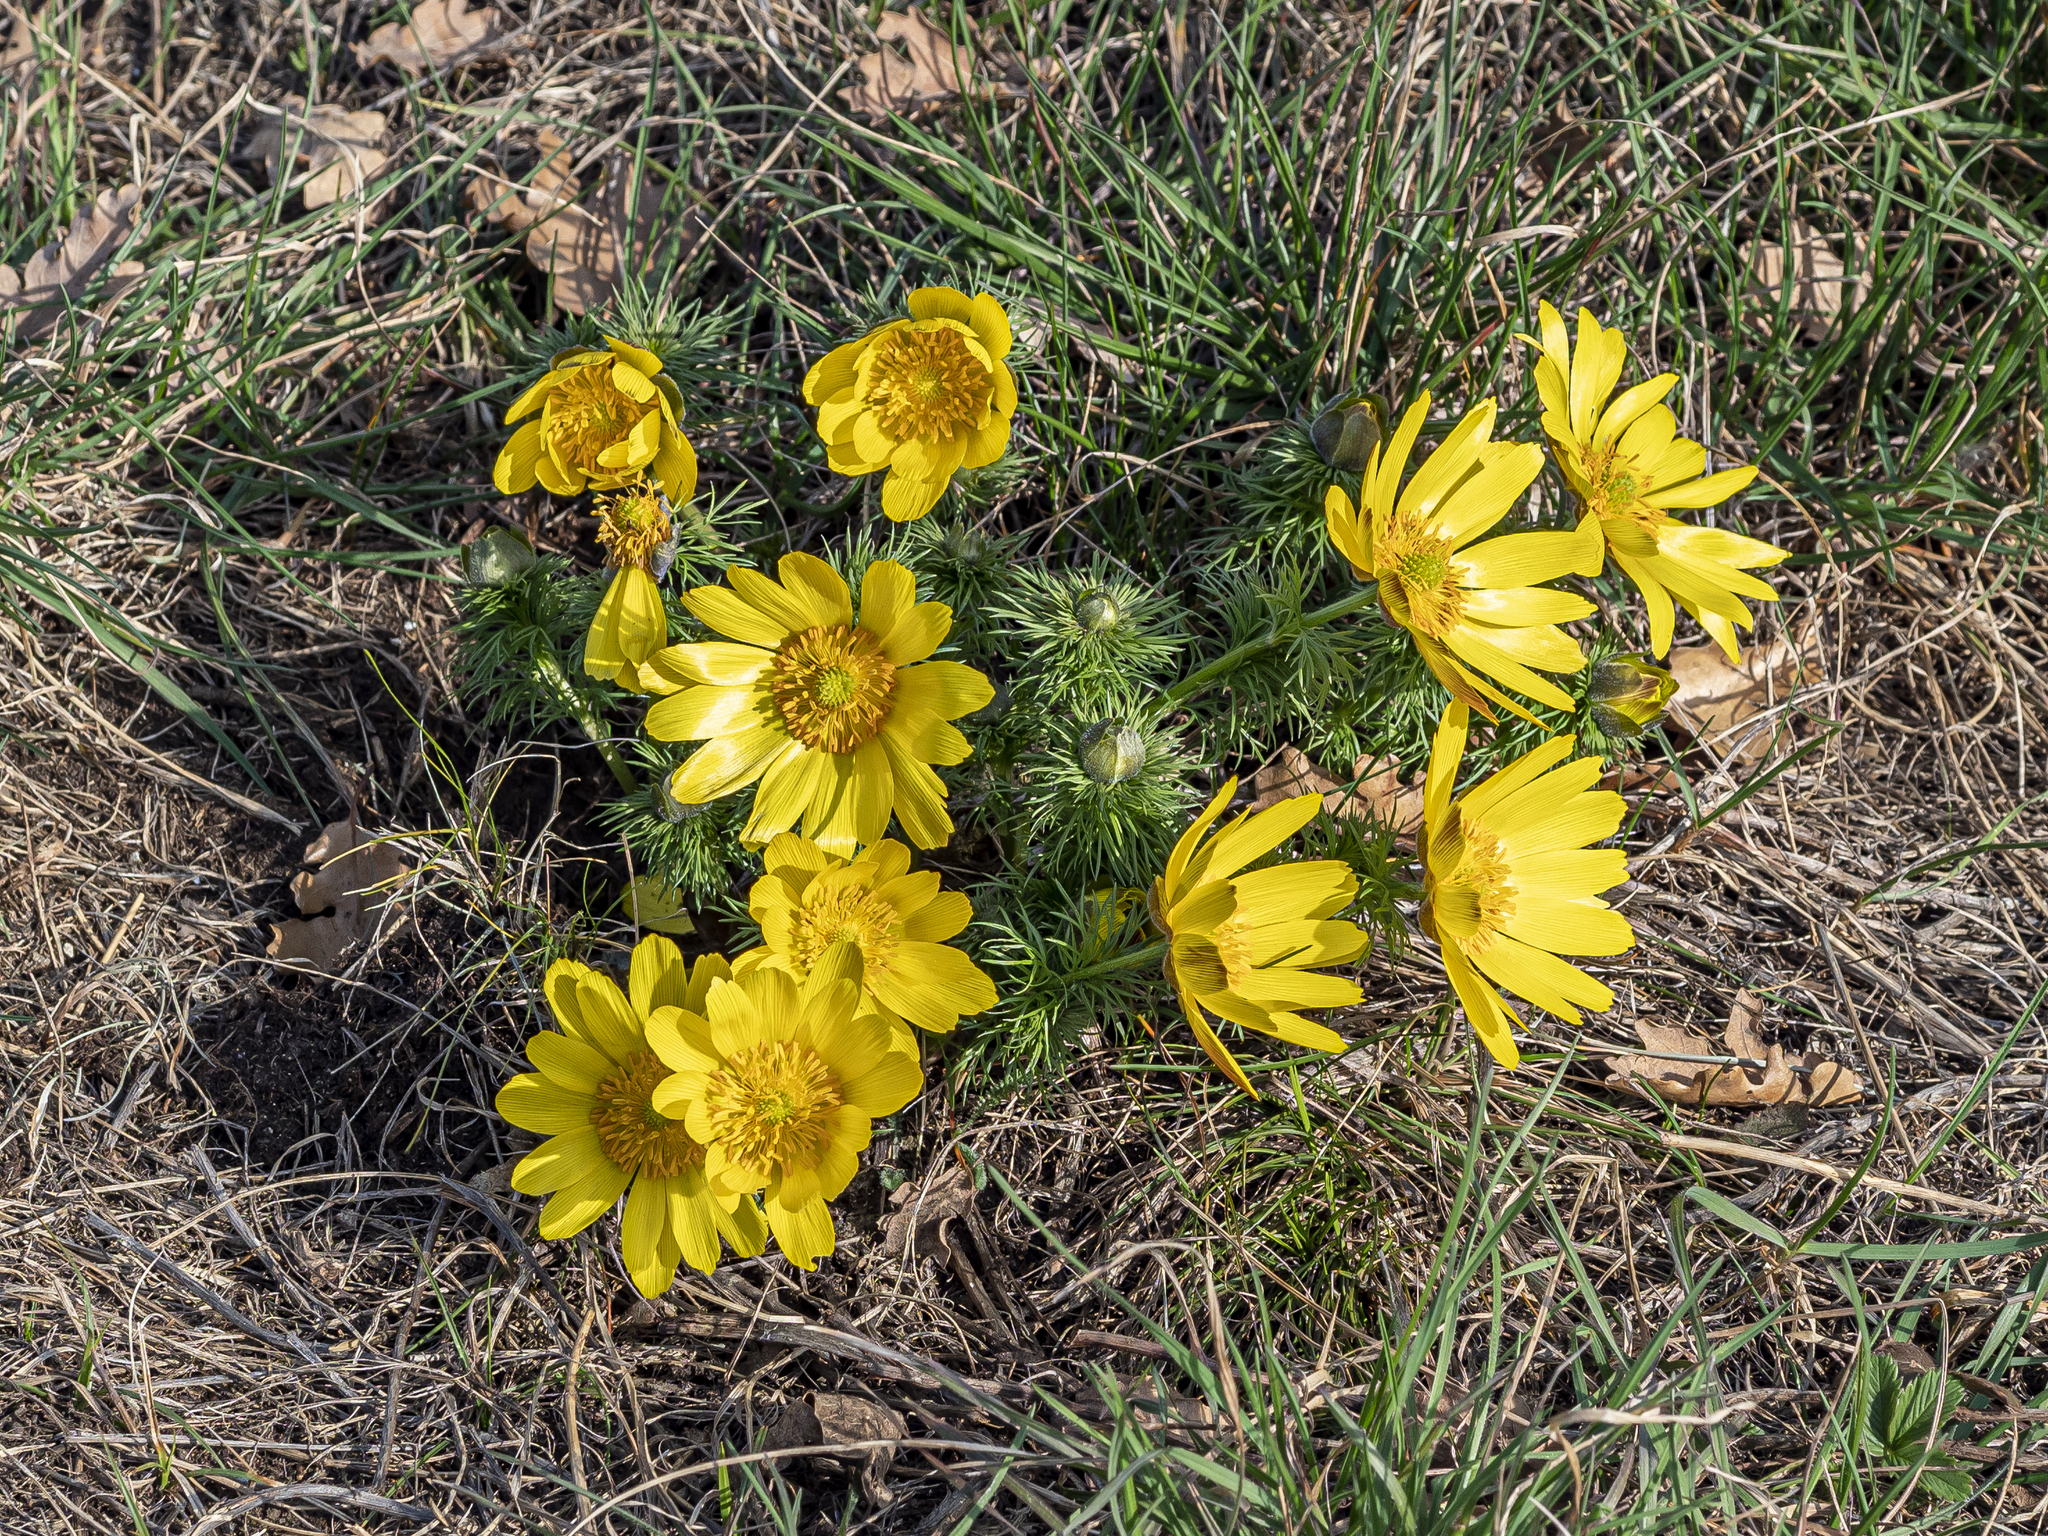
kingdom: Plantae
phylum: Tracheophyta
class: Magnoliopsida
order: Ranunculales
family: Ranunculaceae
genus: Adonis
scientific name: Adonis vernalis
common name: Yellow pheasants-eye
